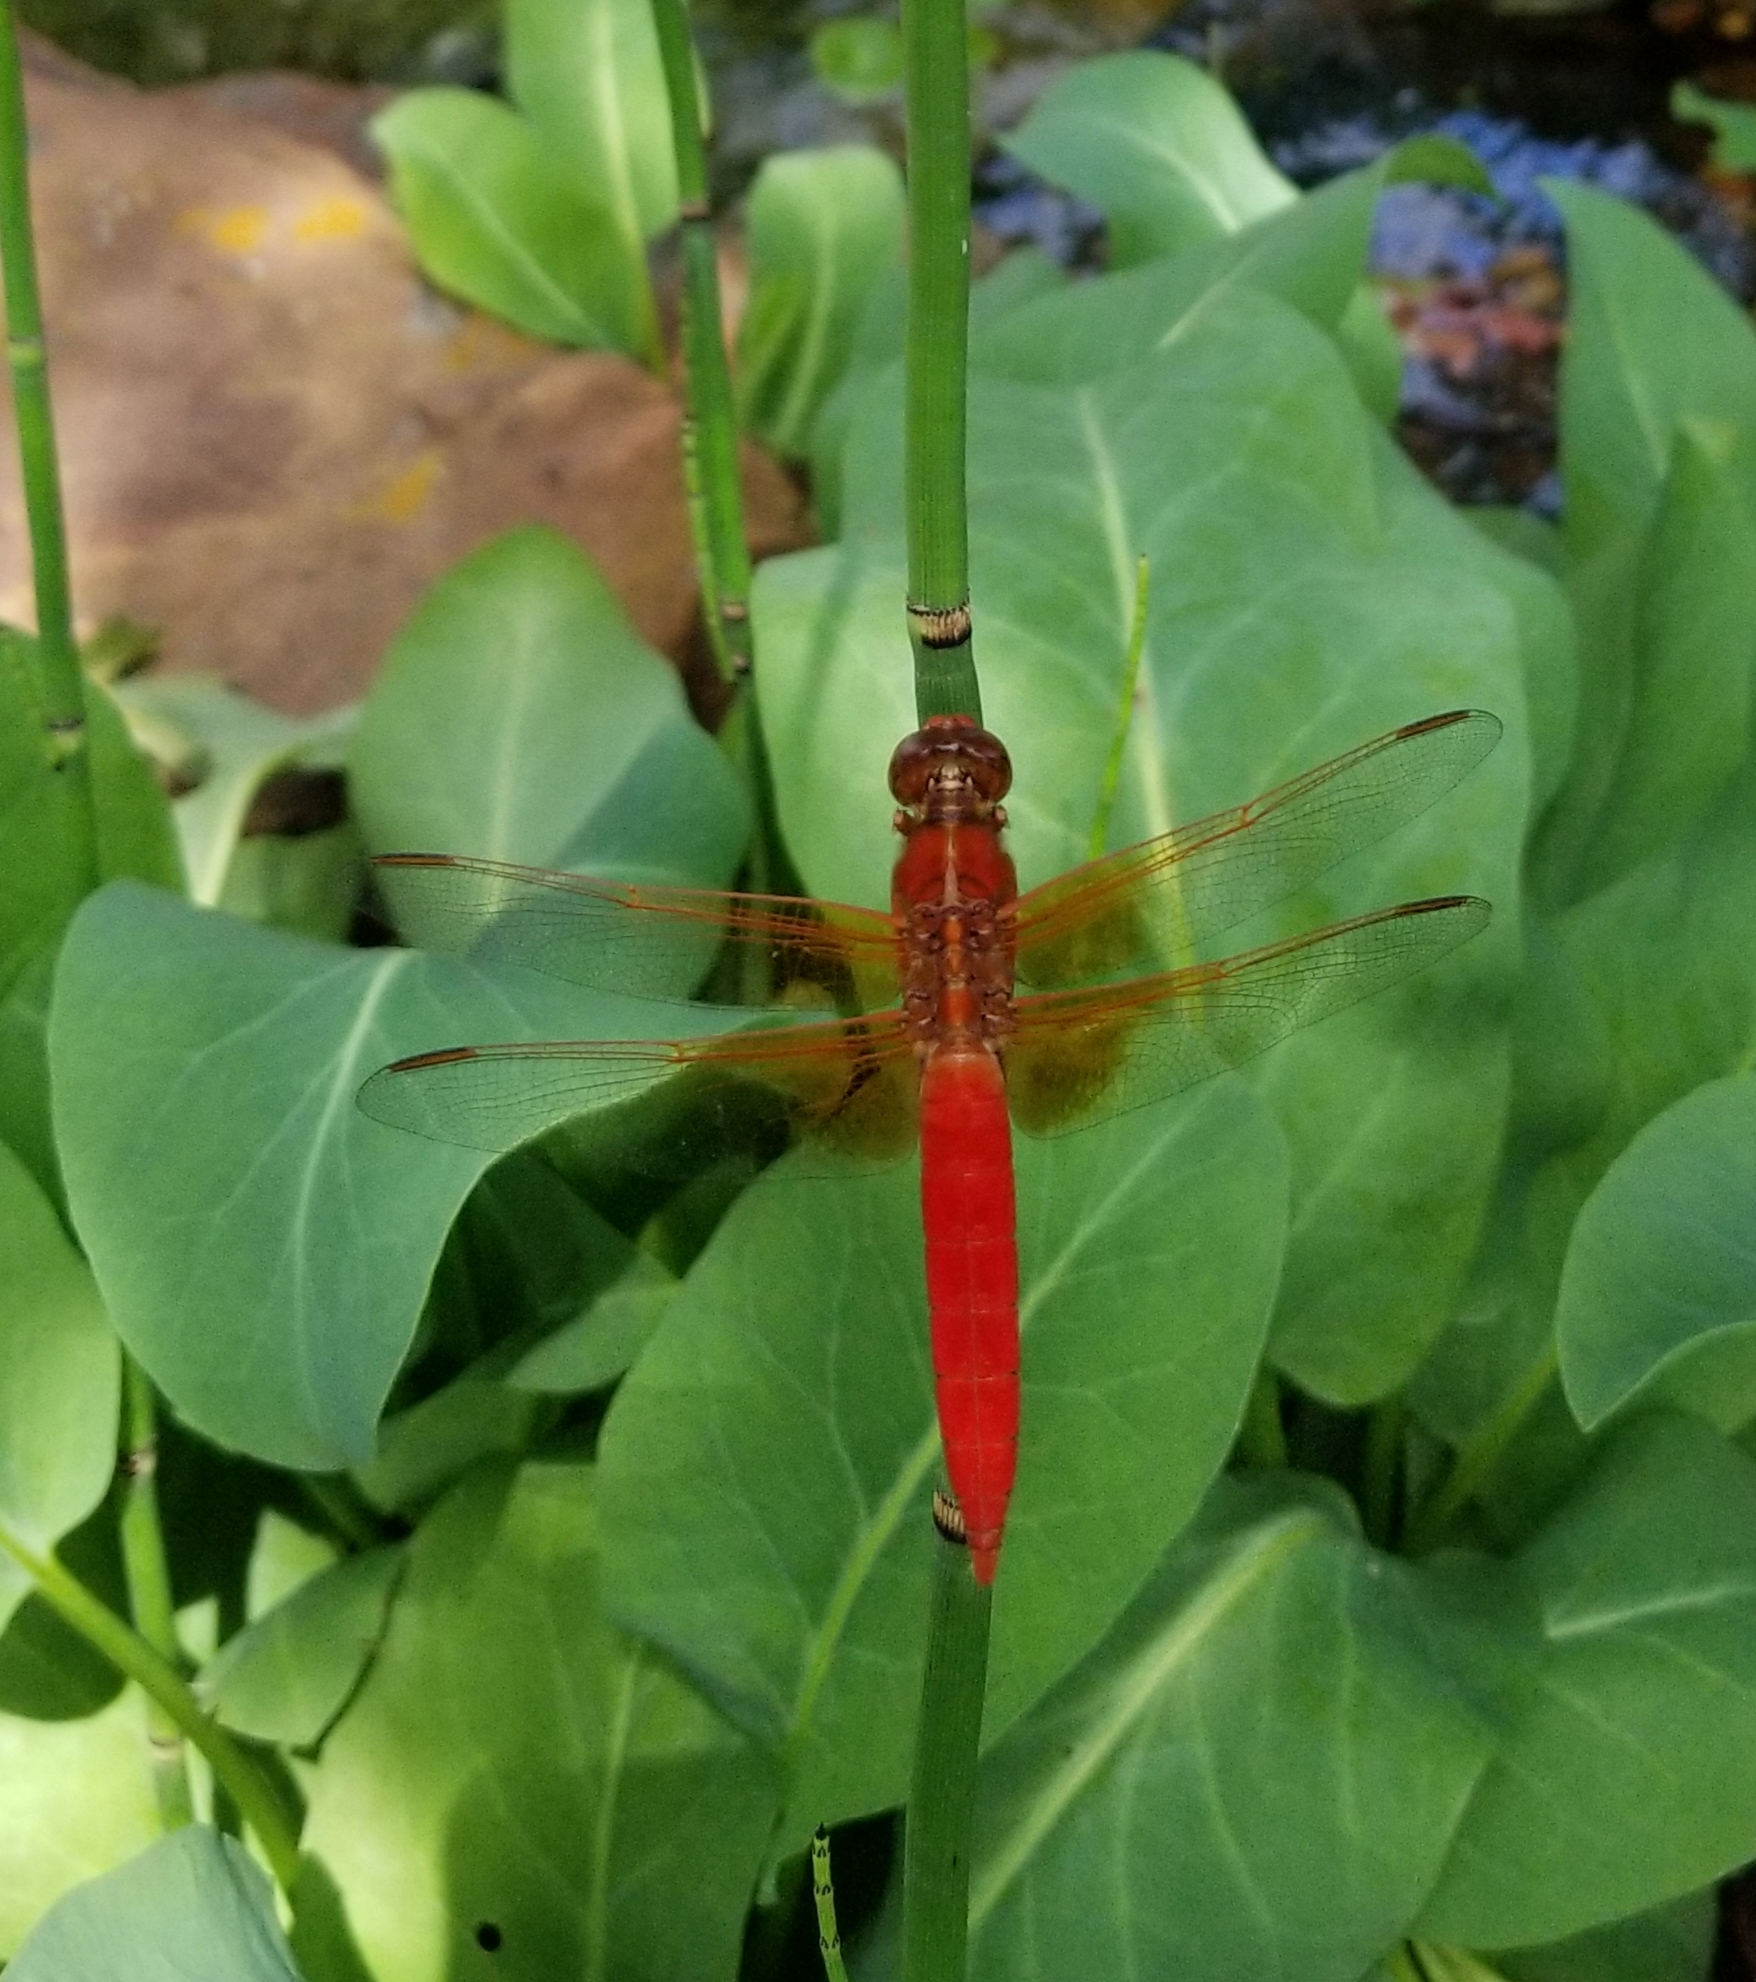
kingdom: Animalia
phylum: Arthropoda
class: Insecta
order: Odonata
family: Libellulidae
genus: Libellula
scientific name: Libellula croceipennis
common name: Neon skimmer
